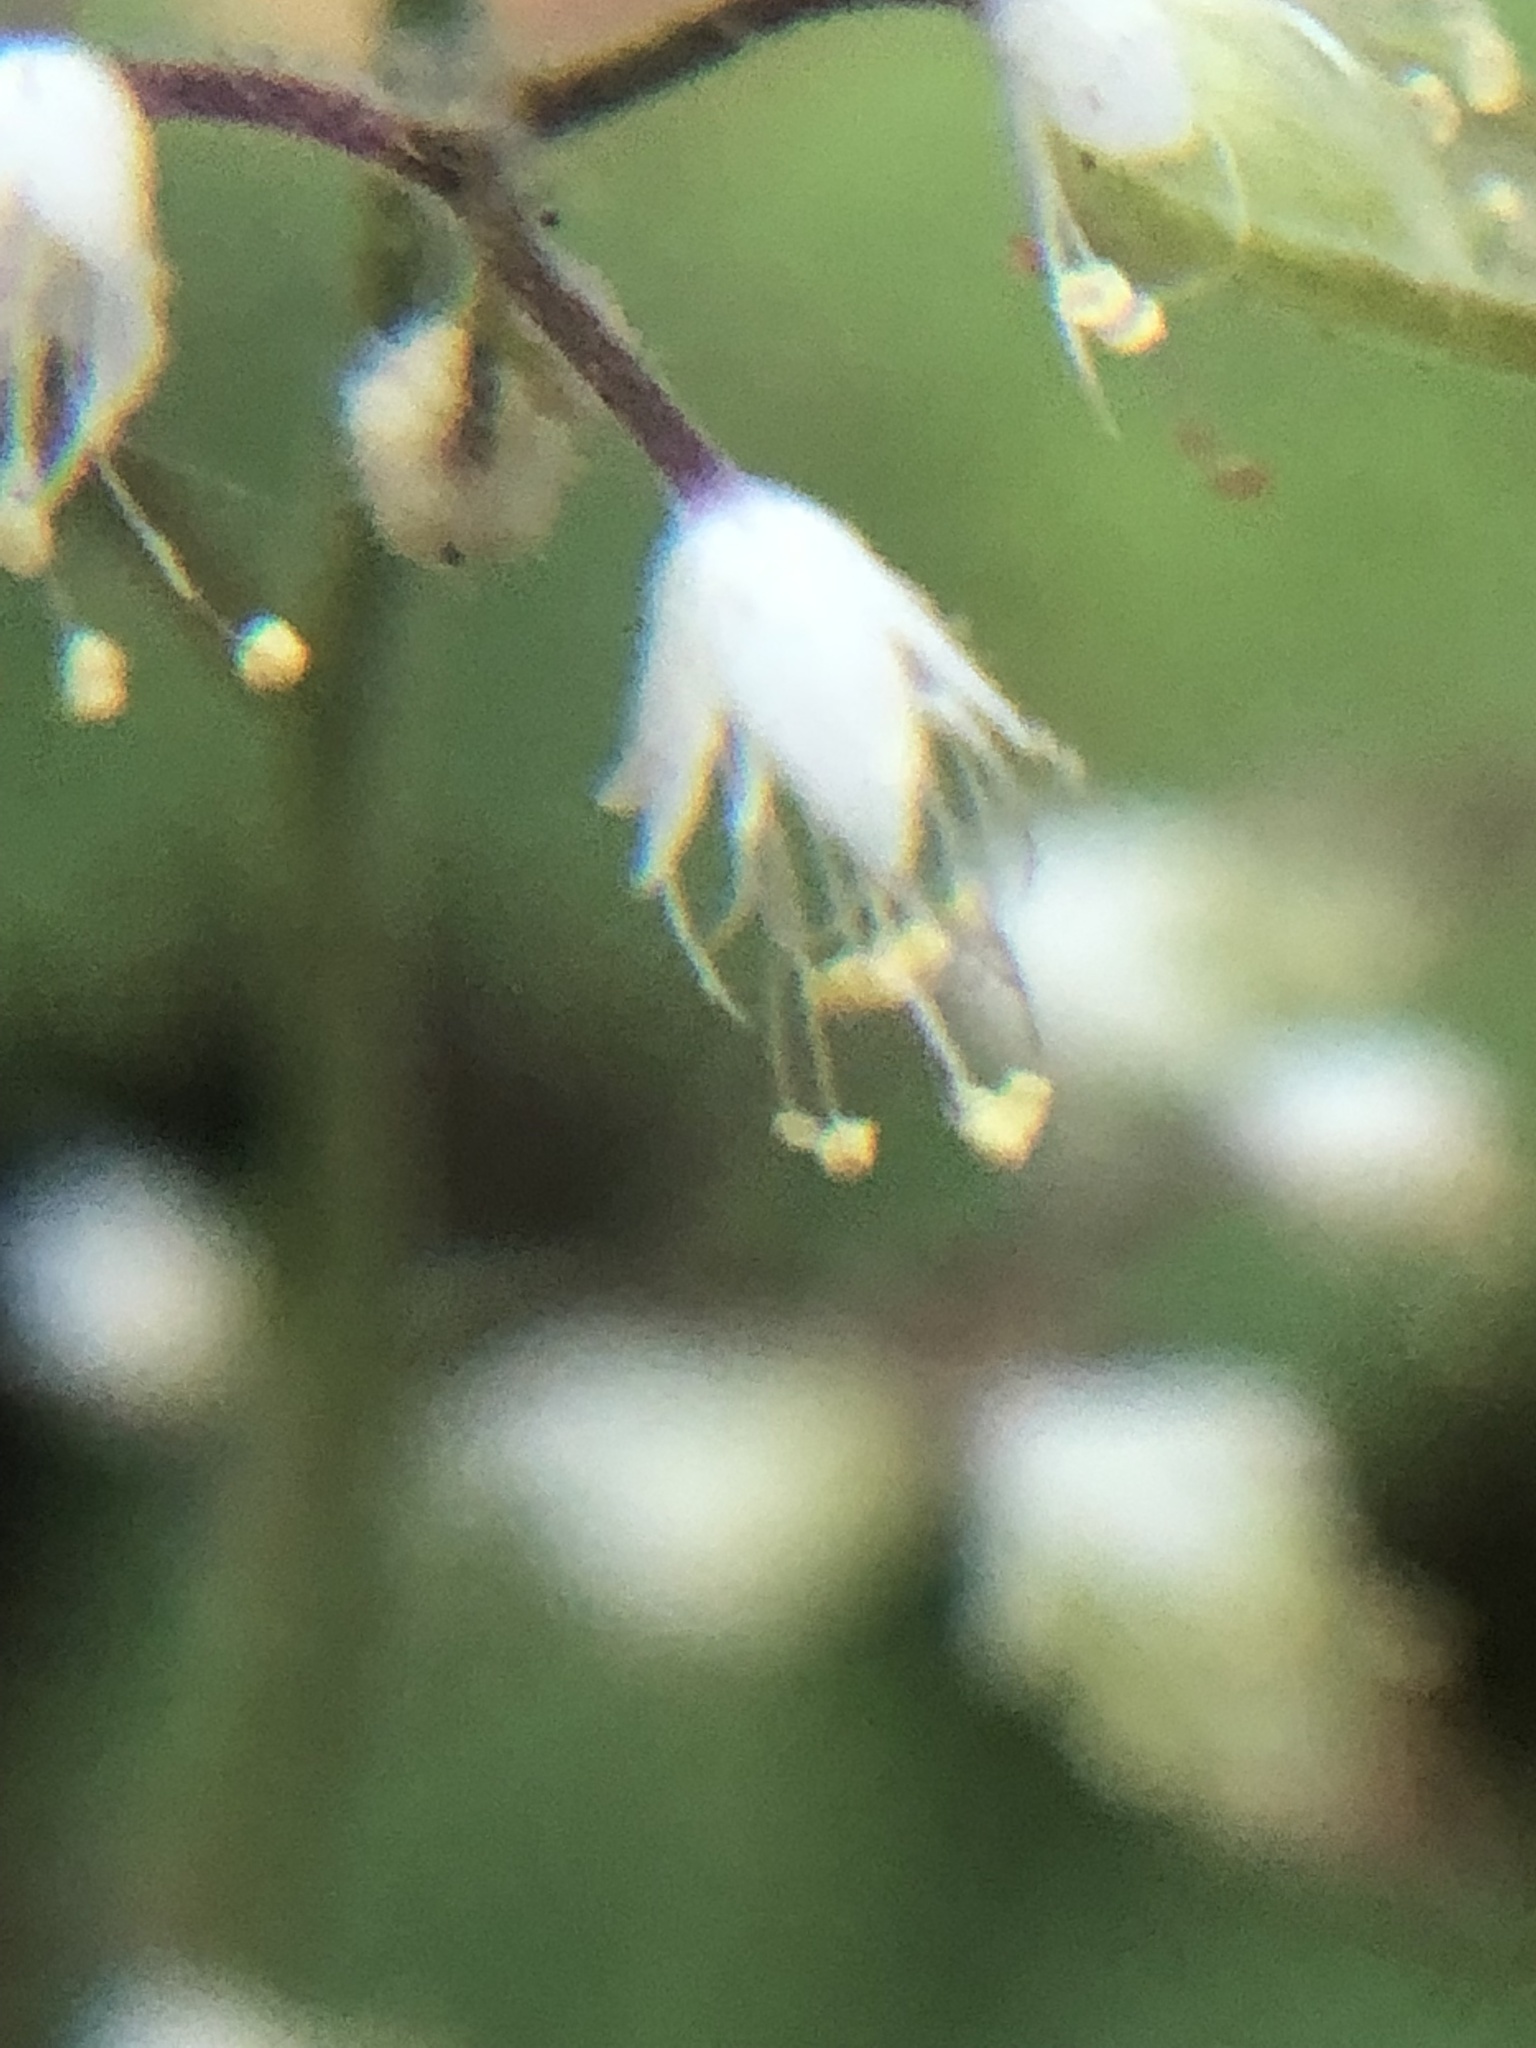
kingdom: Plantae
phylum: Tracheophyta
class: Magnoliopsida
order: Saxifragales
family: Saxifragaceae
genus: Tiarella
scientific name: Tiarella trifoliata
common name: Sugar-scoop
